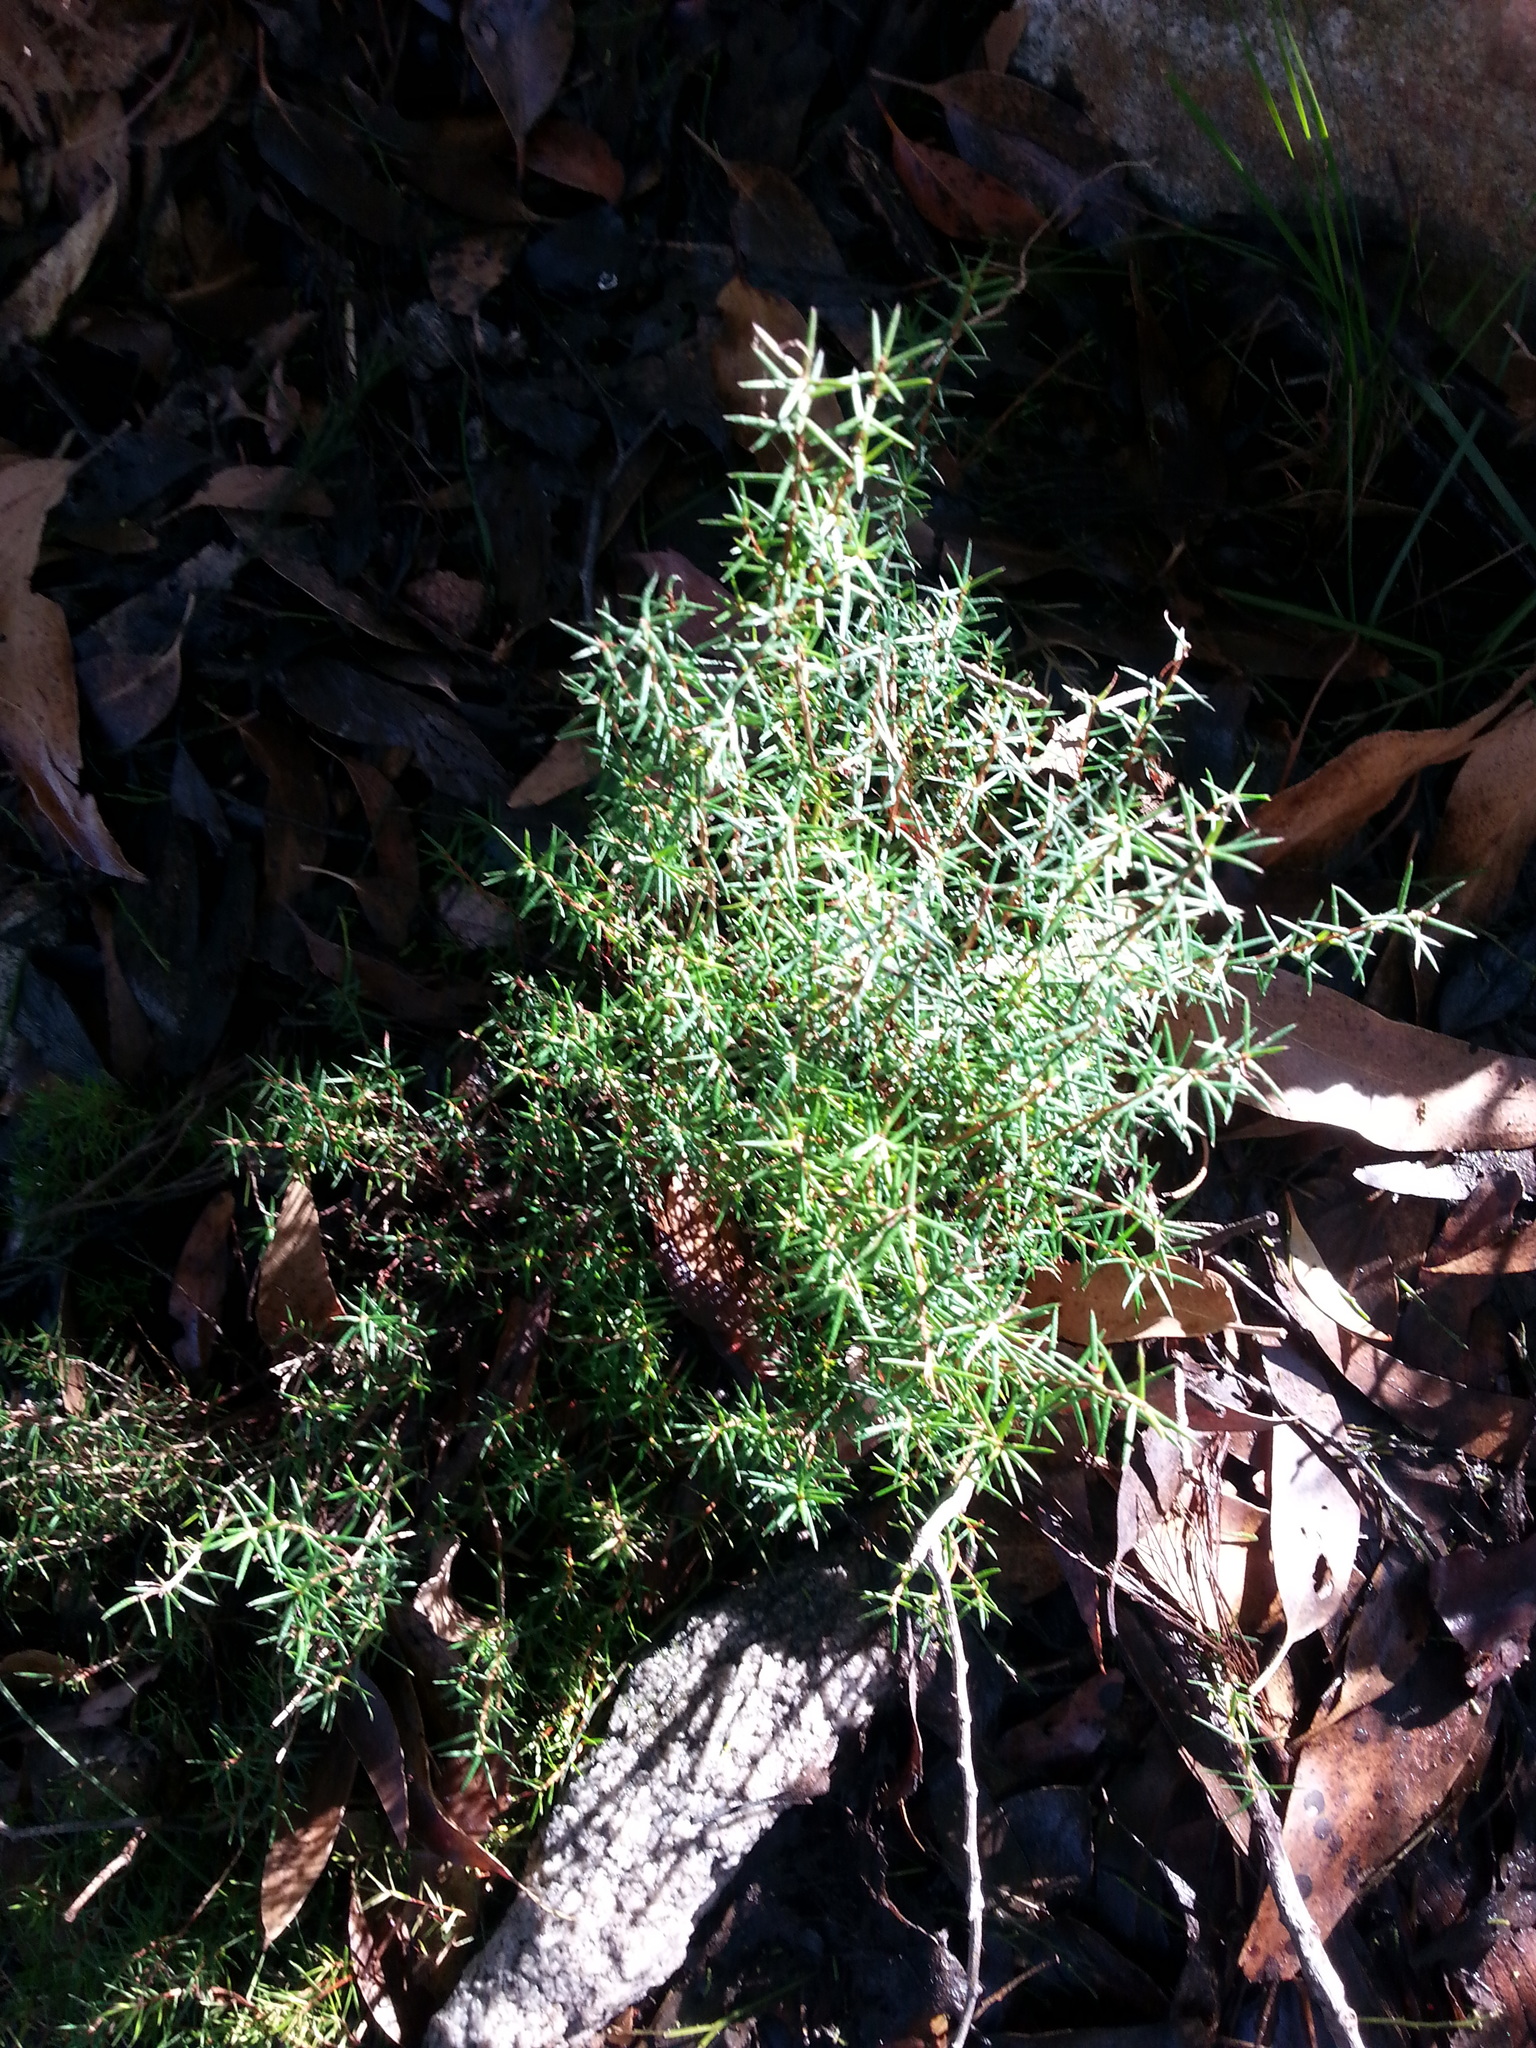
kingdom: Plantae
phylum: Tracheophyta
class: Magnoliopsida
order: Dilleniales
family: Dilleniaceae
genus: Hibbertia
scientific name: Hibbertia exutiacies
